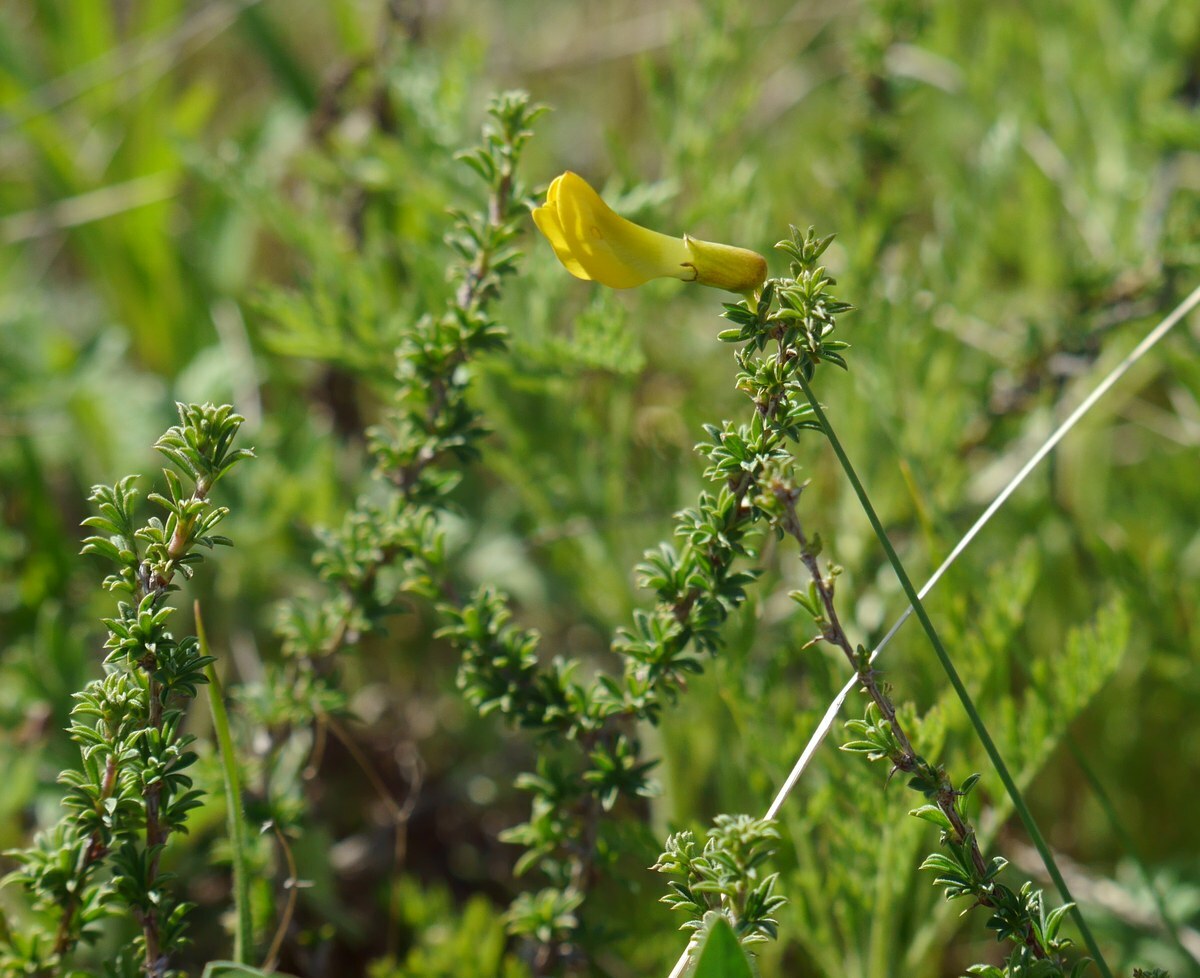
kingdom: Plantae
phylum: Tracheophyta
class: Magnoliopsida
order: Fabales
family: Fabaceae
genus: Caragana
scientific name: Caragana scythica
